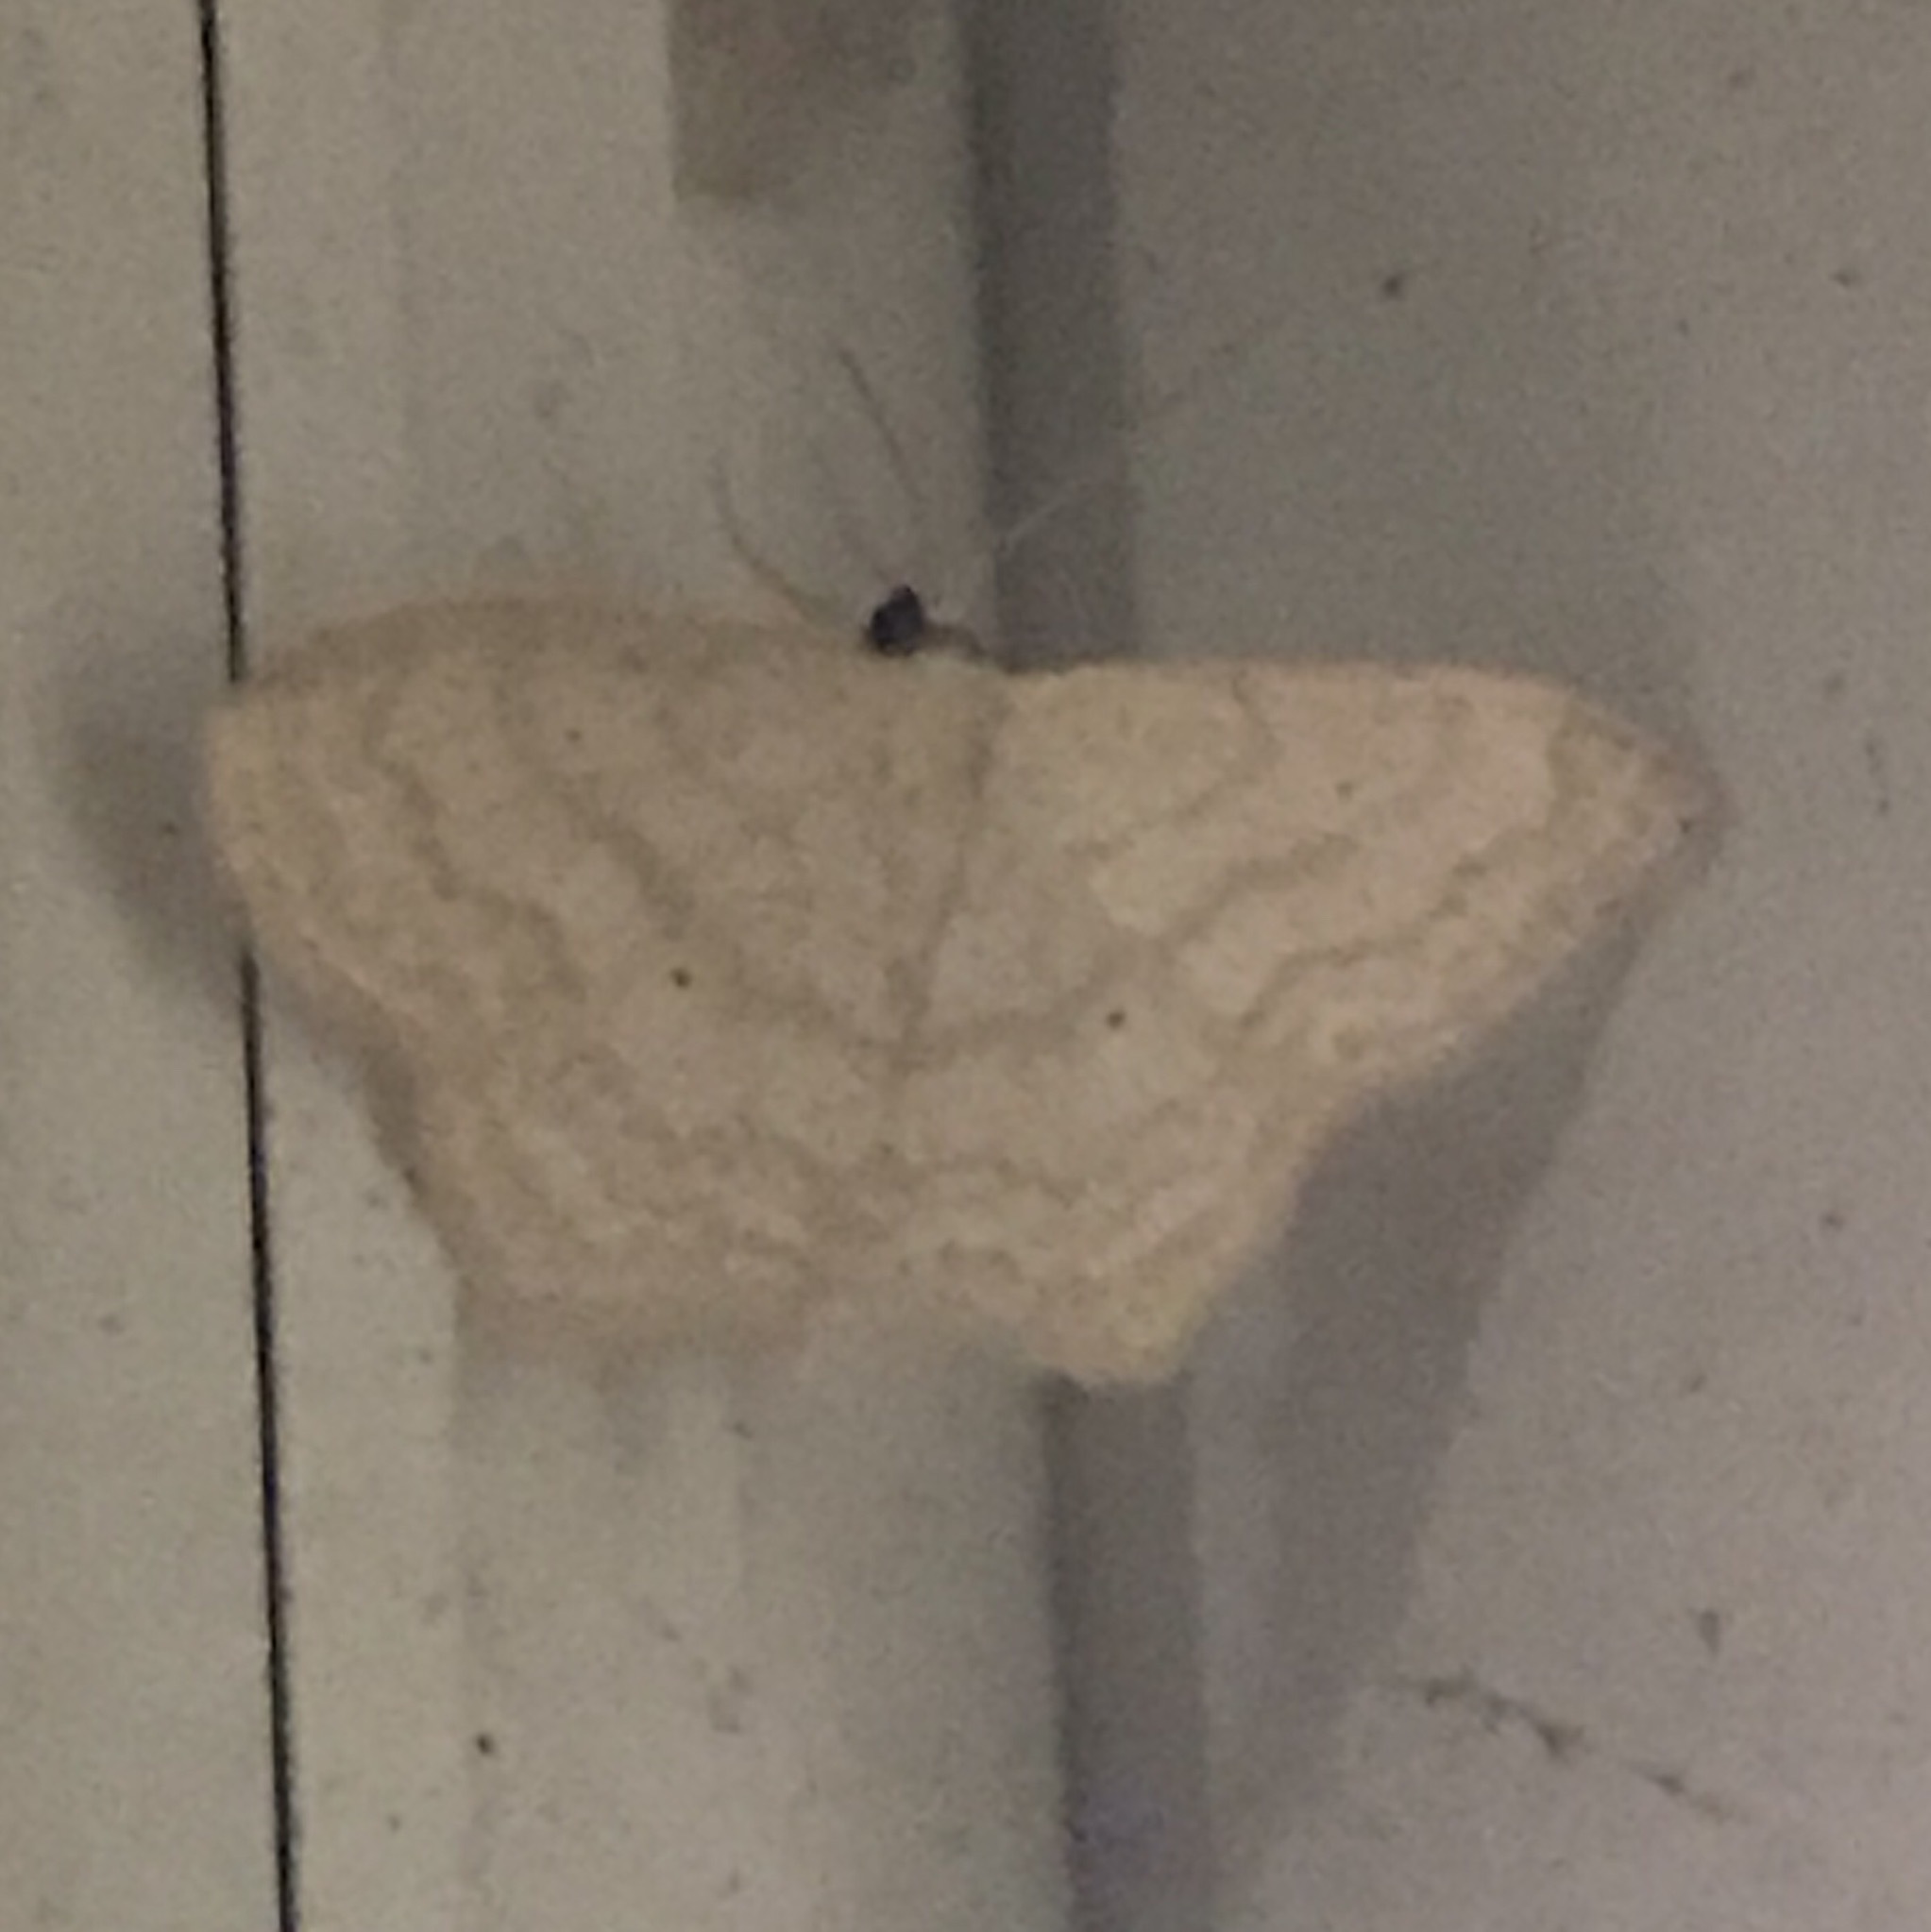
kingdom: Animalia
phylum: Arthropoda
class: Insecta
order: Lepidoptera
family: Geometridae
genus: Scopula
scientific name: Scopula limboundata
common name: Large lace border
